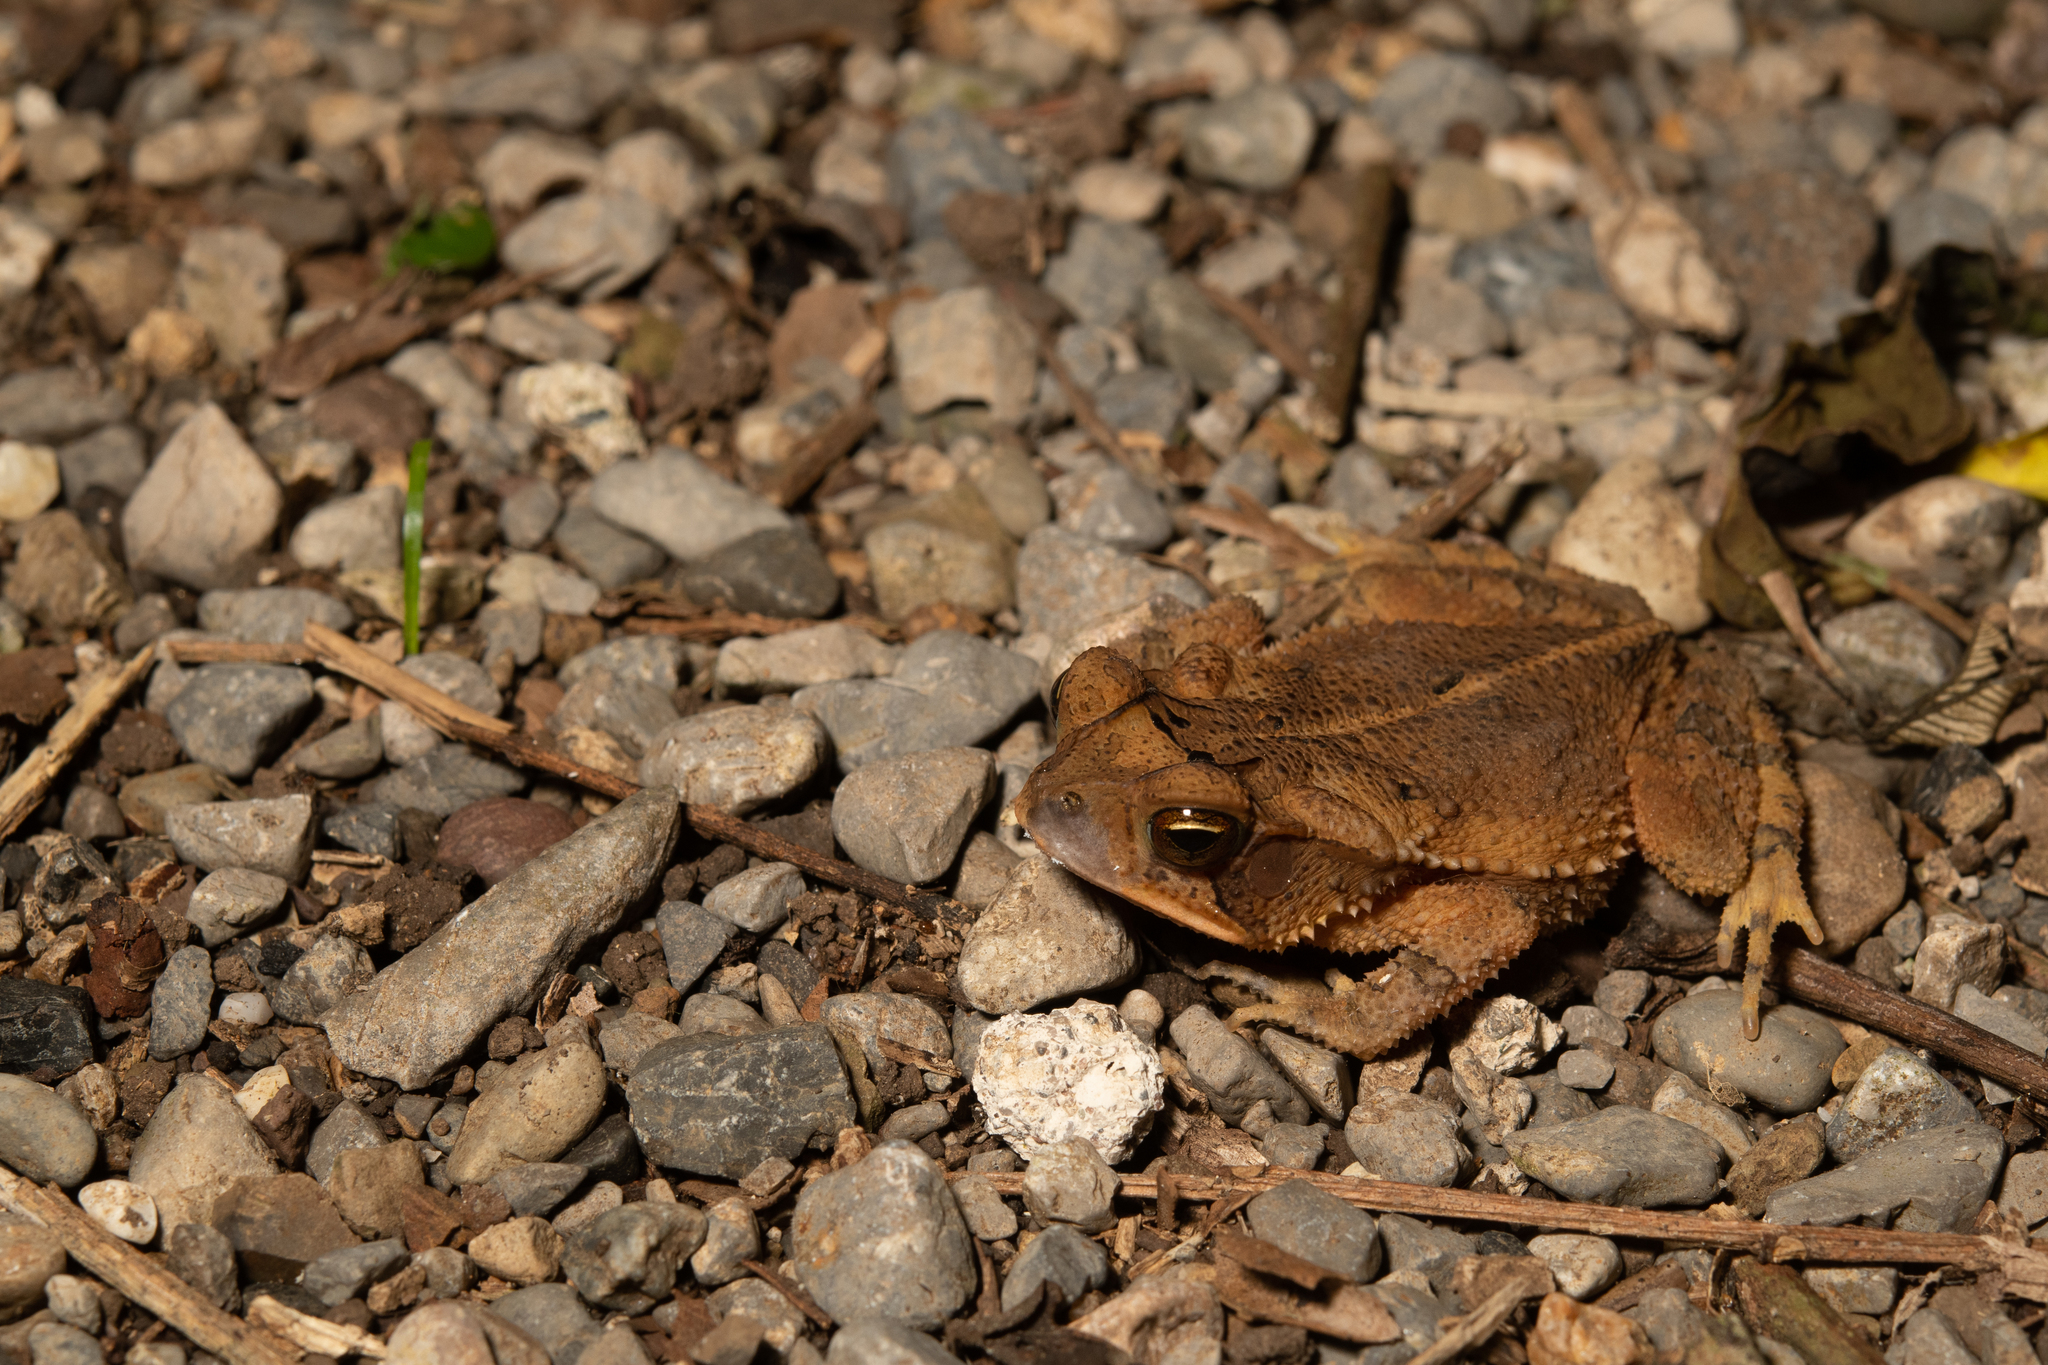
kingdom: Animalia
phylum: Chordata
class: Amphibia
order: Anura
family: Bufonidae
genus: Incilius
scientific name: Incilius valliceps
